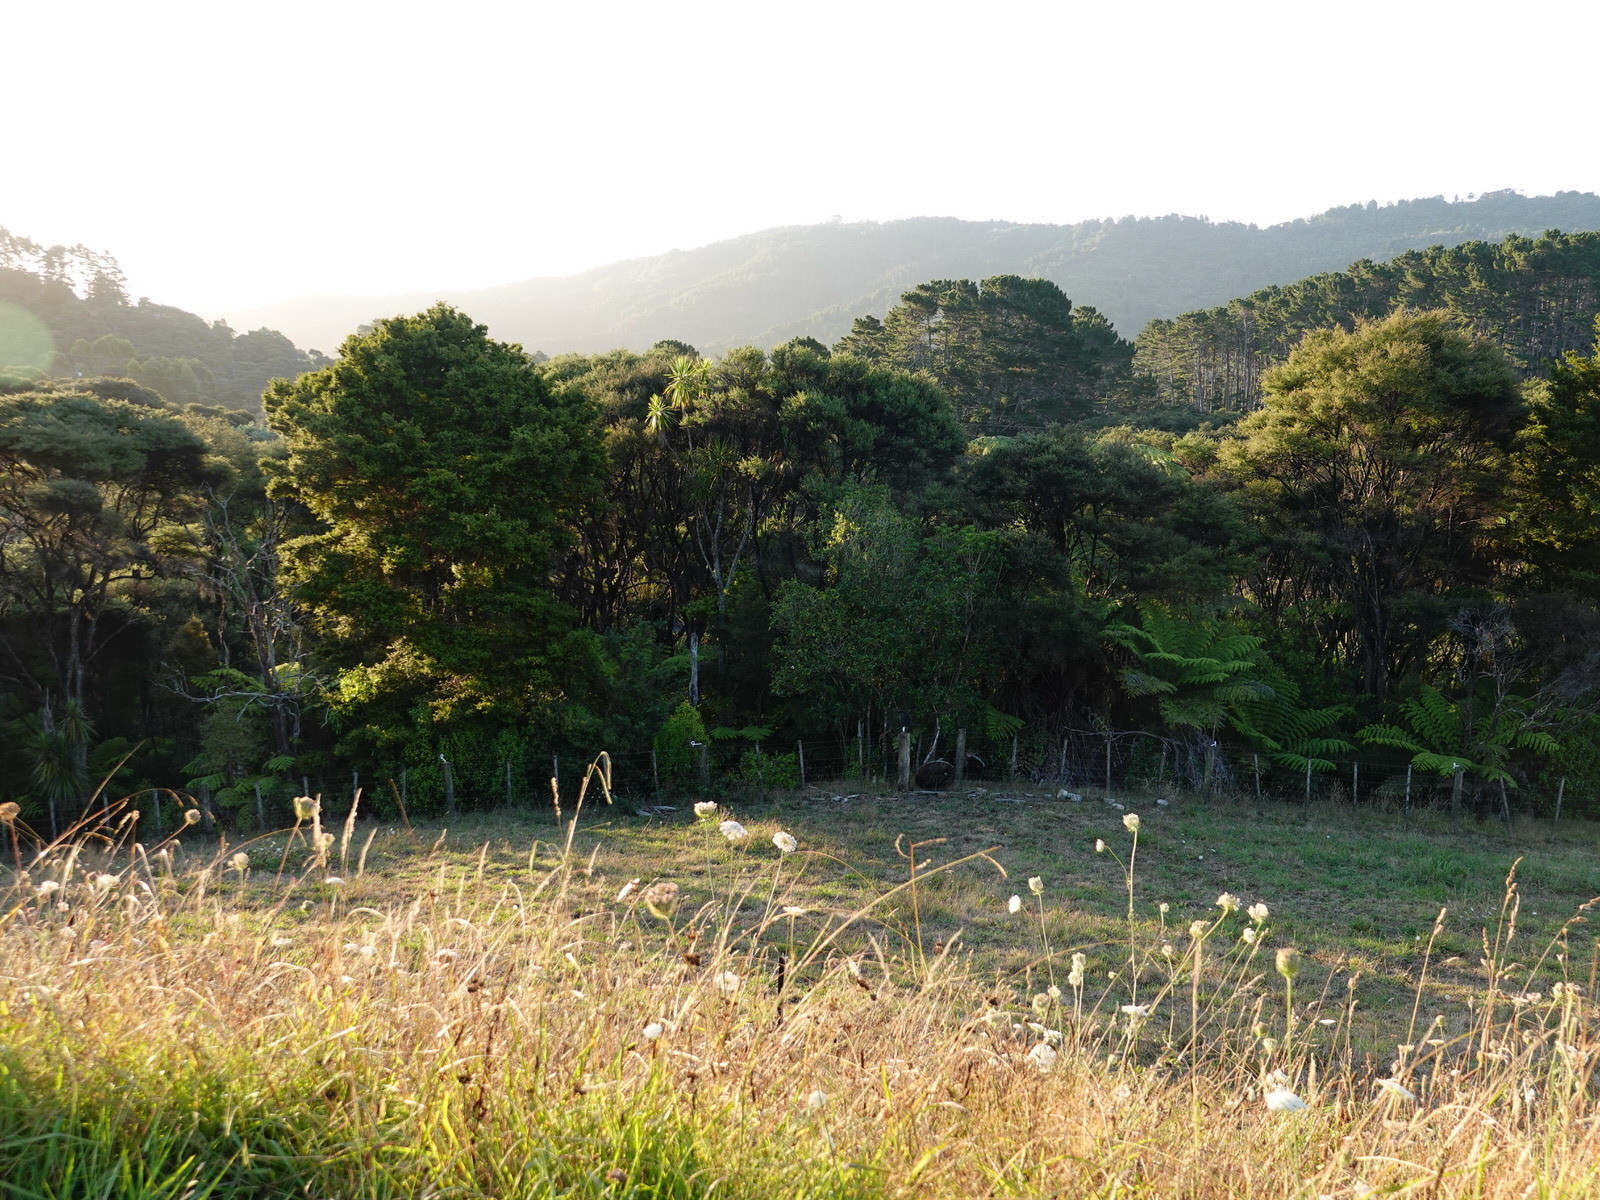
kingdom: Animalia
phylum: Chordata
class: Aves
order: Gruiformes
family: Rallidae
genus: Porphyrio
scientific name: Porphyrio melanotus
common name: Australasian swamphen
